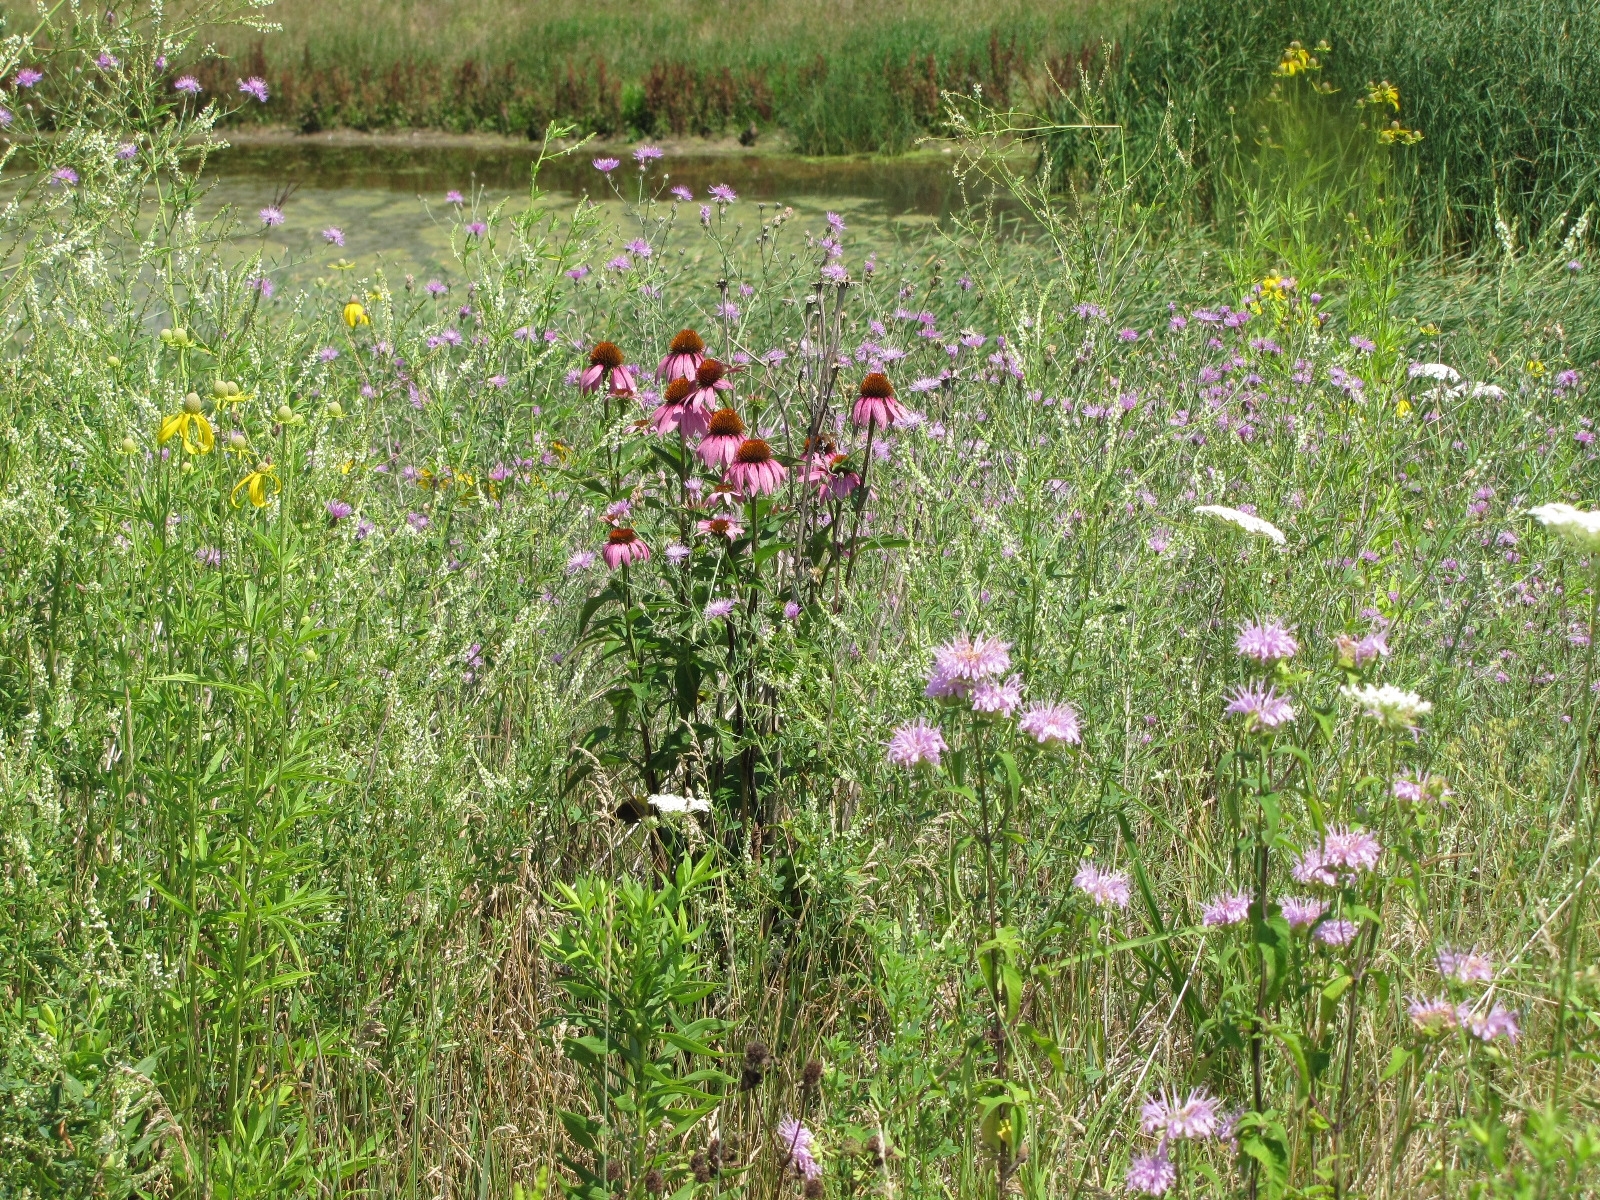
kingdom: Plantae
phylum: Tracheophyta
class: Magnoliopsida
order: Asterales
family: Asteraceae
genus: Echinacea
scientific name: Echinacea purpurea
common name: Broad-leaved purple coneflower
